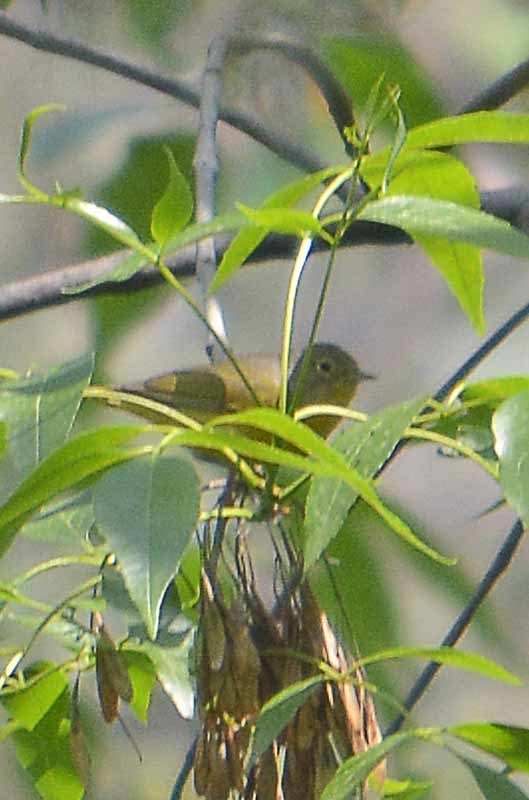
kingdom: Animalia
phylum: Chordata
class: Aves
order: Passeriformes
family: Parulidae
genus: Leiothlypis
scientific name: Leiothlypis ruficapilla
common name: Nashville warbler
